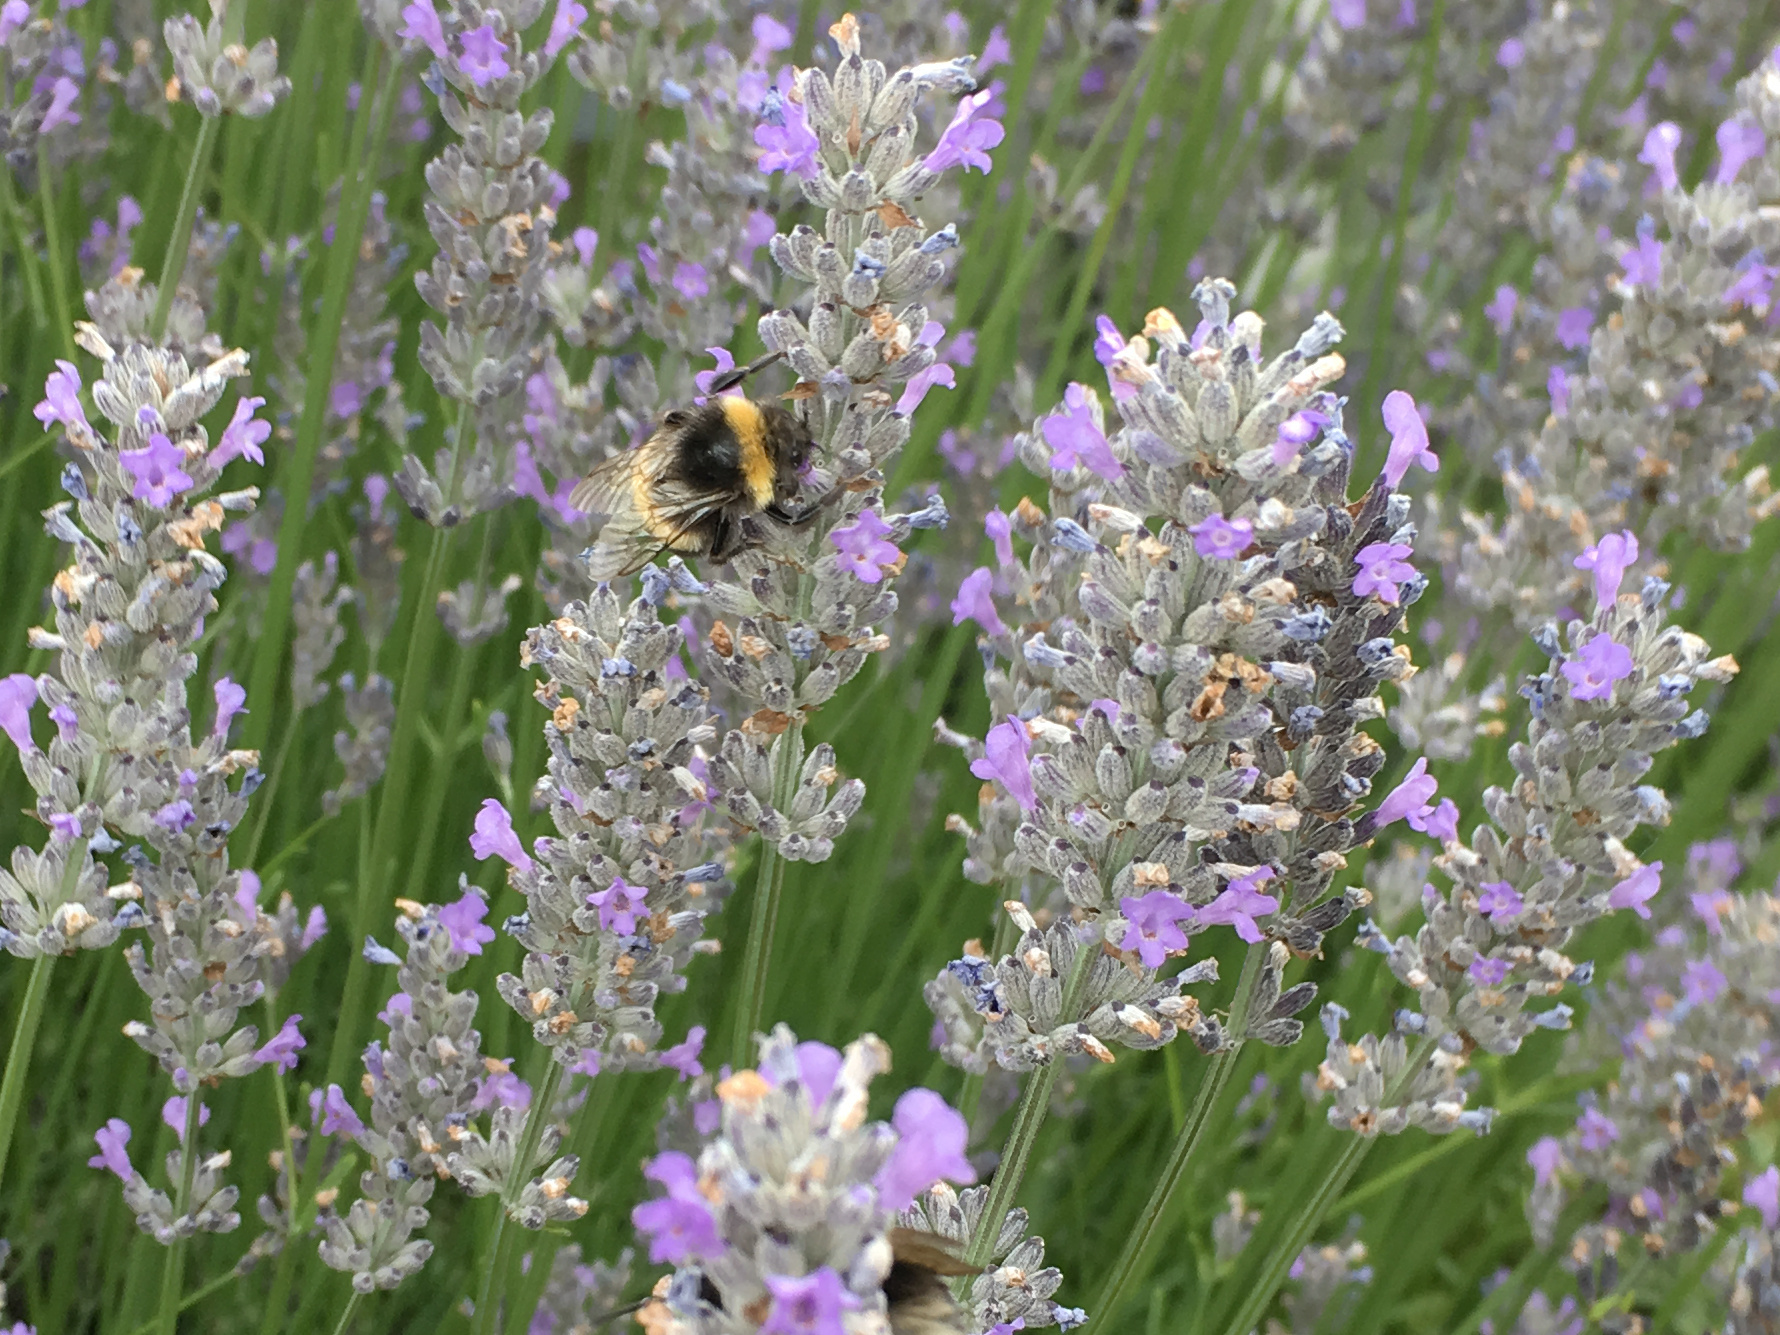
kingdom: Animalia
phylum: Arthropoda
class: Insecta
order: Hymenoptera
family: Apidae
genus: Bombus
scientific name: Bombus terrestris
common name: Buff-tailed bumblebee
